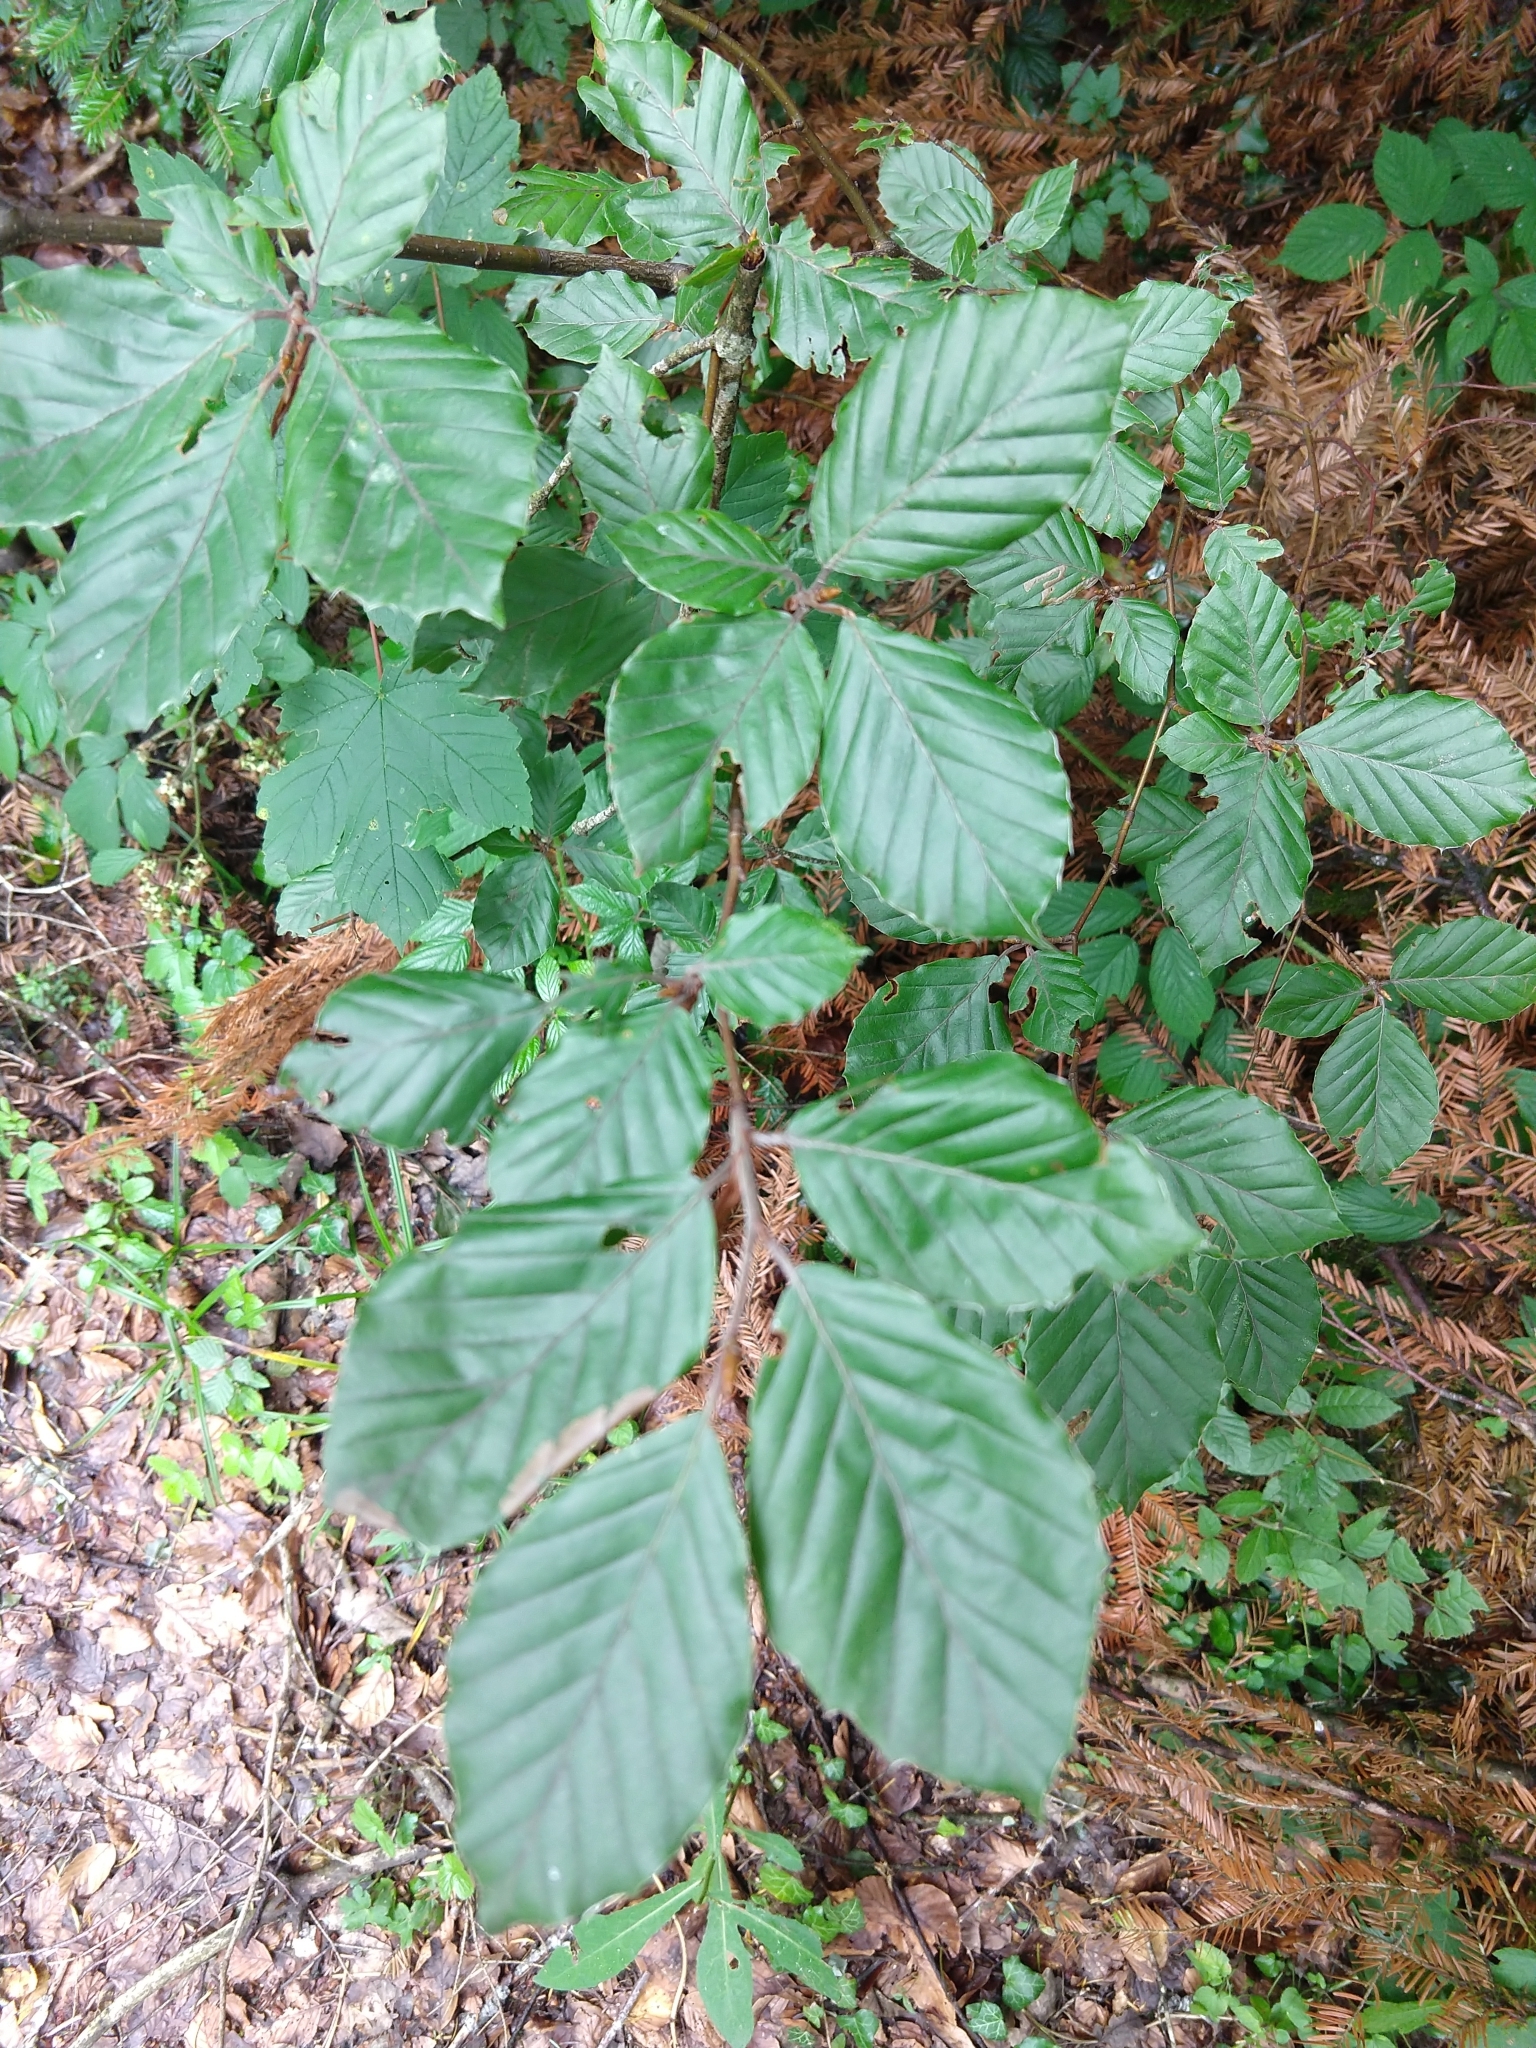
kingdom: Plantae
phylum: Tracheophyta
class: Magnoliopsida
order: Fagales
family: Fagaceae
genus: Fagus
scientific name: Fagus sylvatica
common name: Beech
